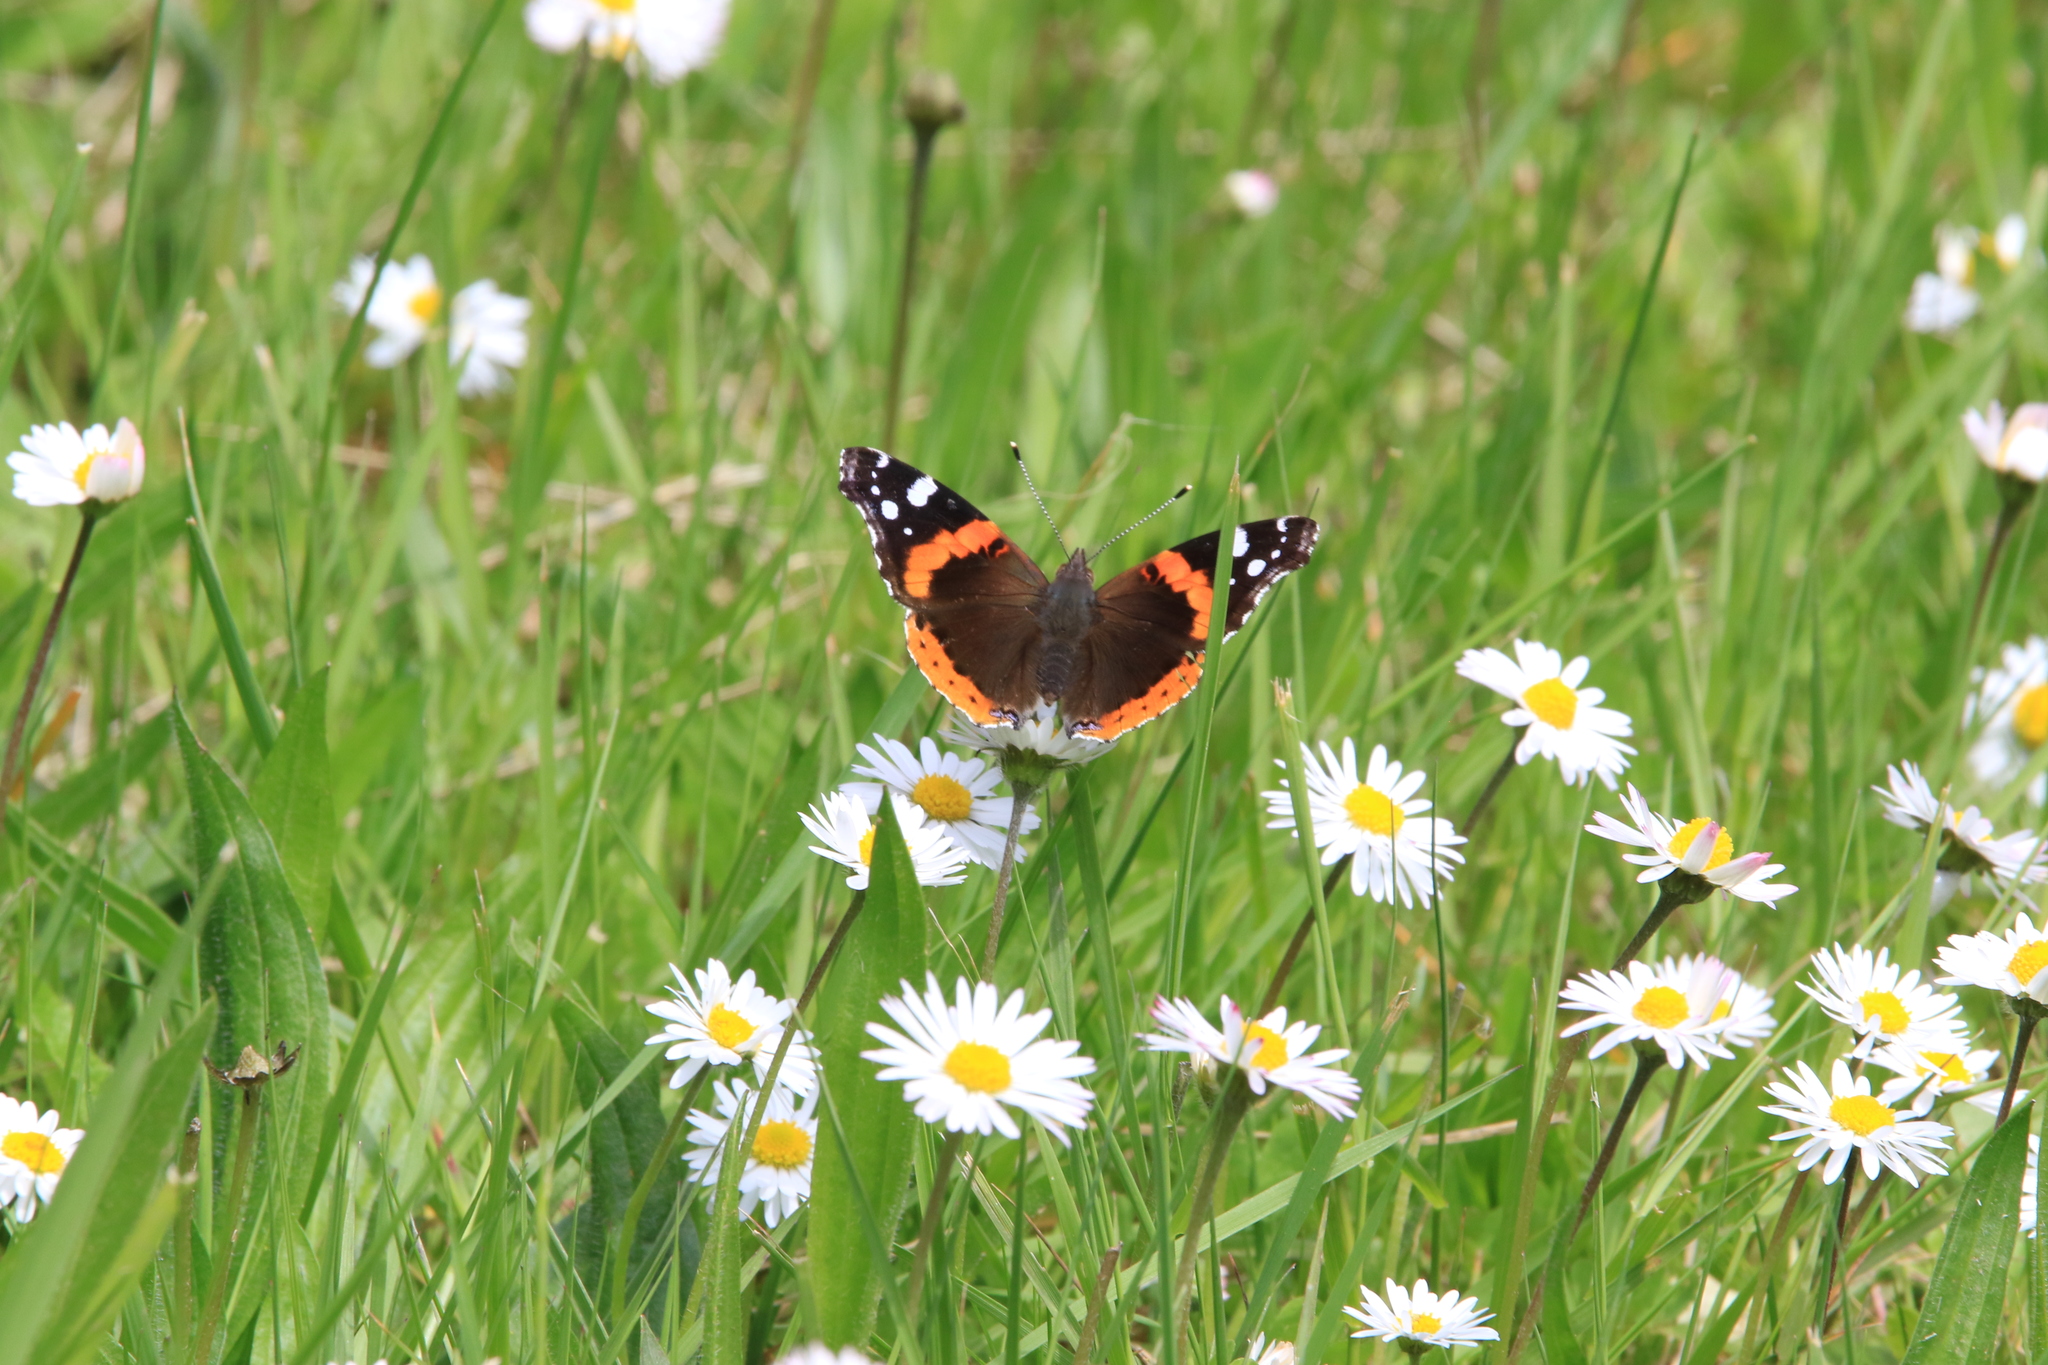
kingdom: Animalia
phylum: Arthropoda
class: Insecta
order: Lepidoptera
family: Nymphalidae
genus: Vanessa
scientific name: Vanessa atalanta
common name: Red admiral
